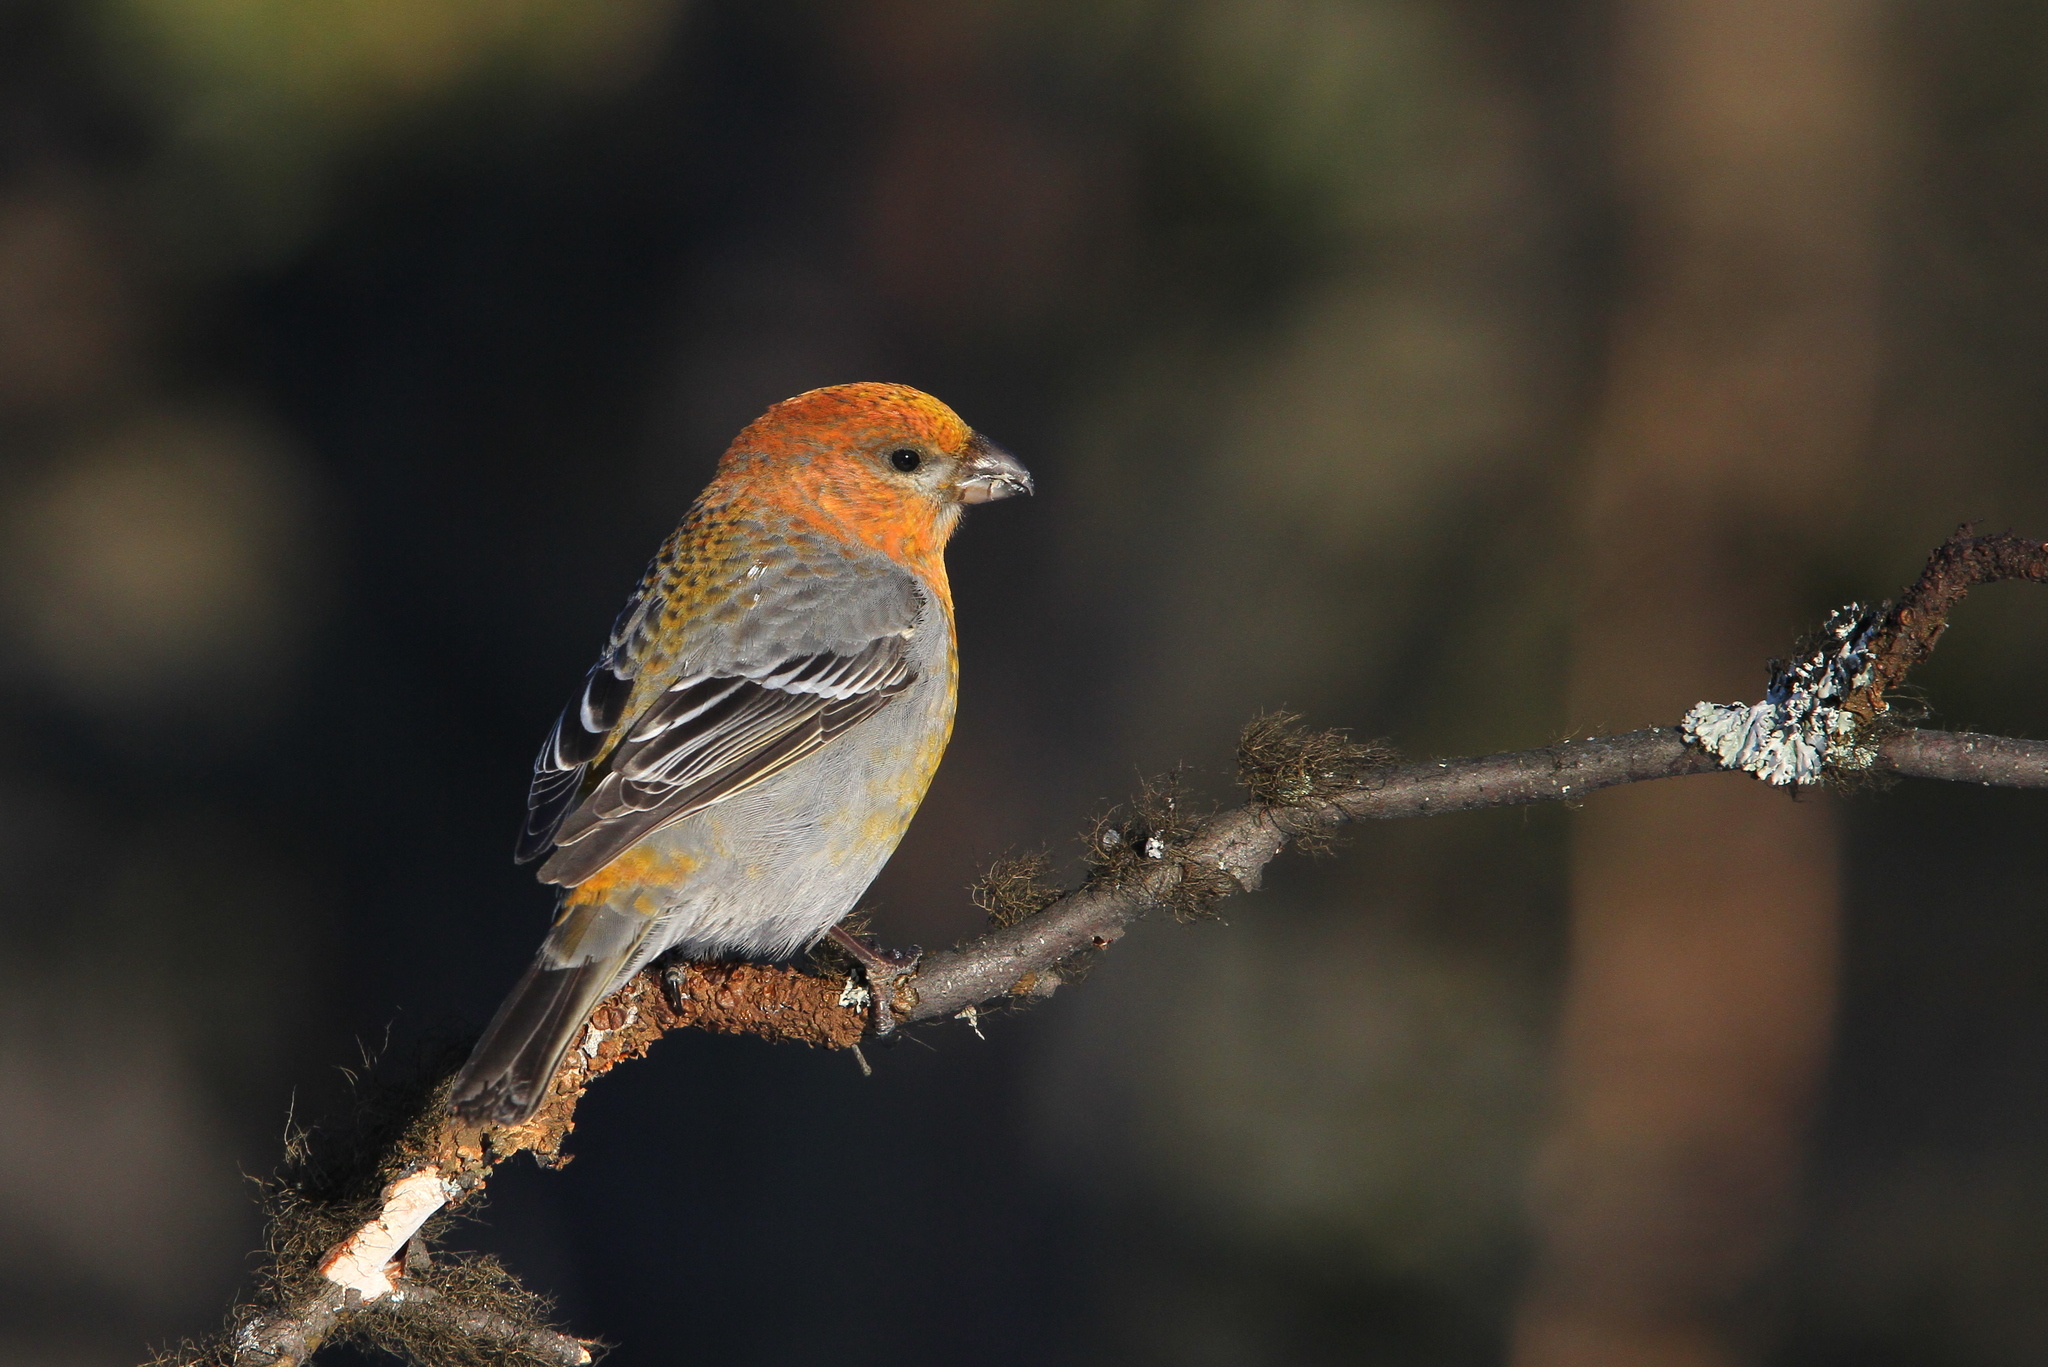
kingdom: Animalia
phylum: Chordata
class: Aves
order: Passeriformes
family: Fringillidae
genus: Pinicola
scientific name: Pinicola enucleator
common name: Pine grosbeak
